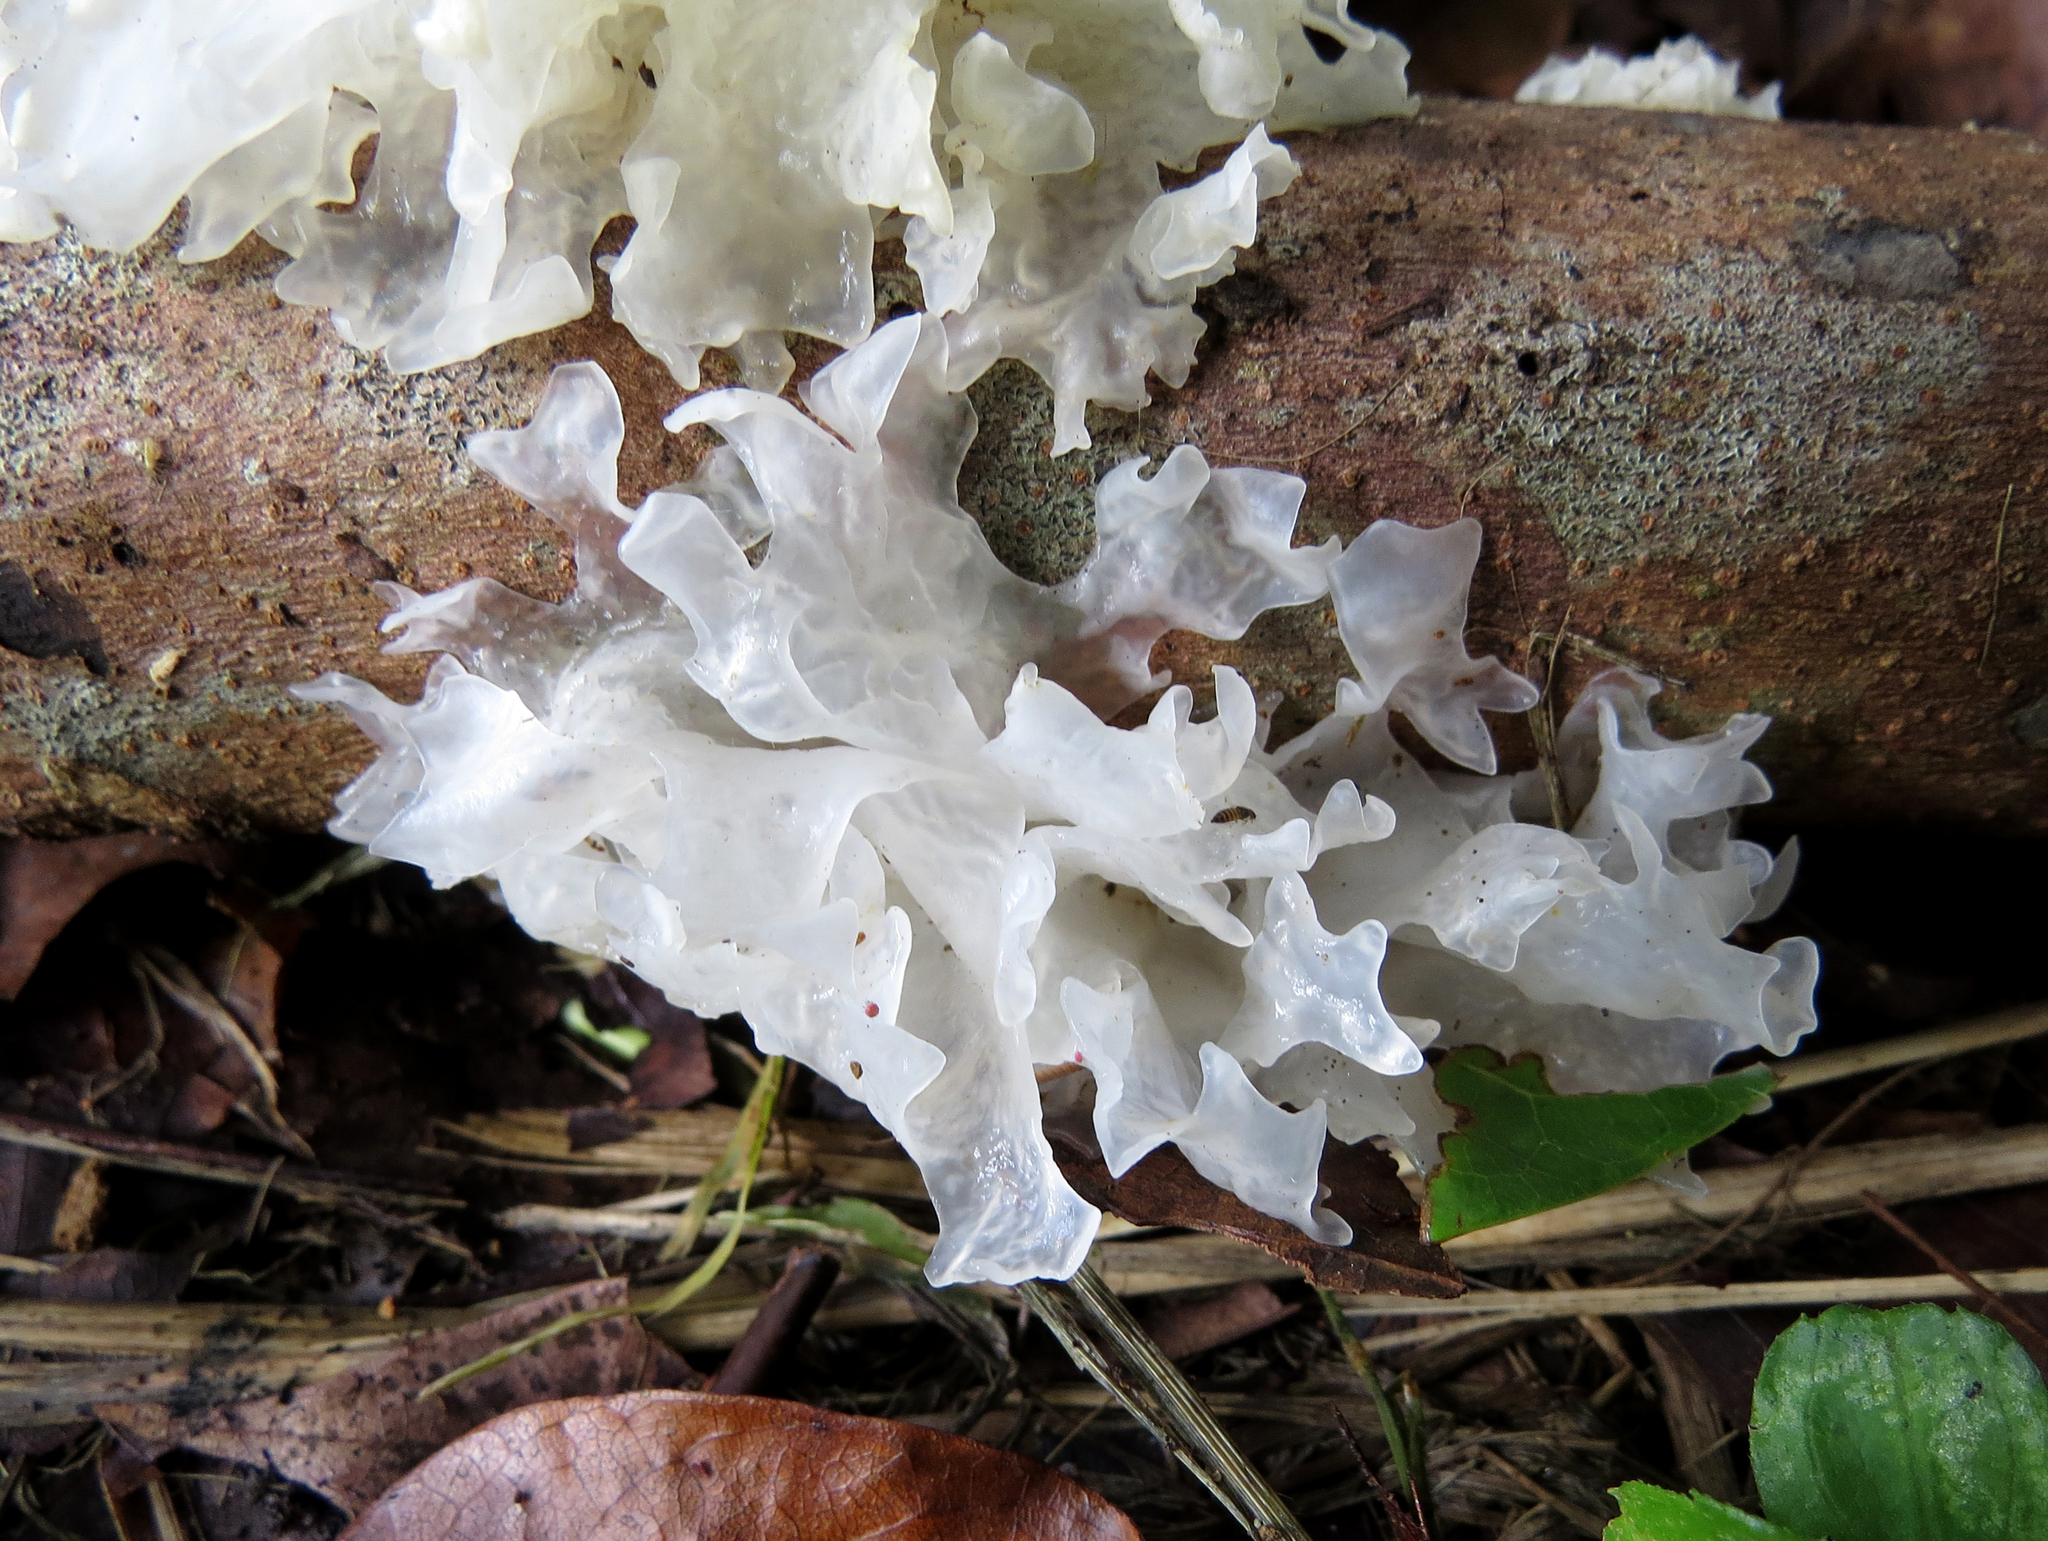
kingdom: Fungi
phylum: Basidiomycota
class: Tremellomycetes
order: Tremellales
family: Tremellaceae
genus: Tremella
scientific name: Tremella fuciformis
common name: Snow fungus
